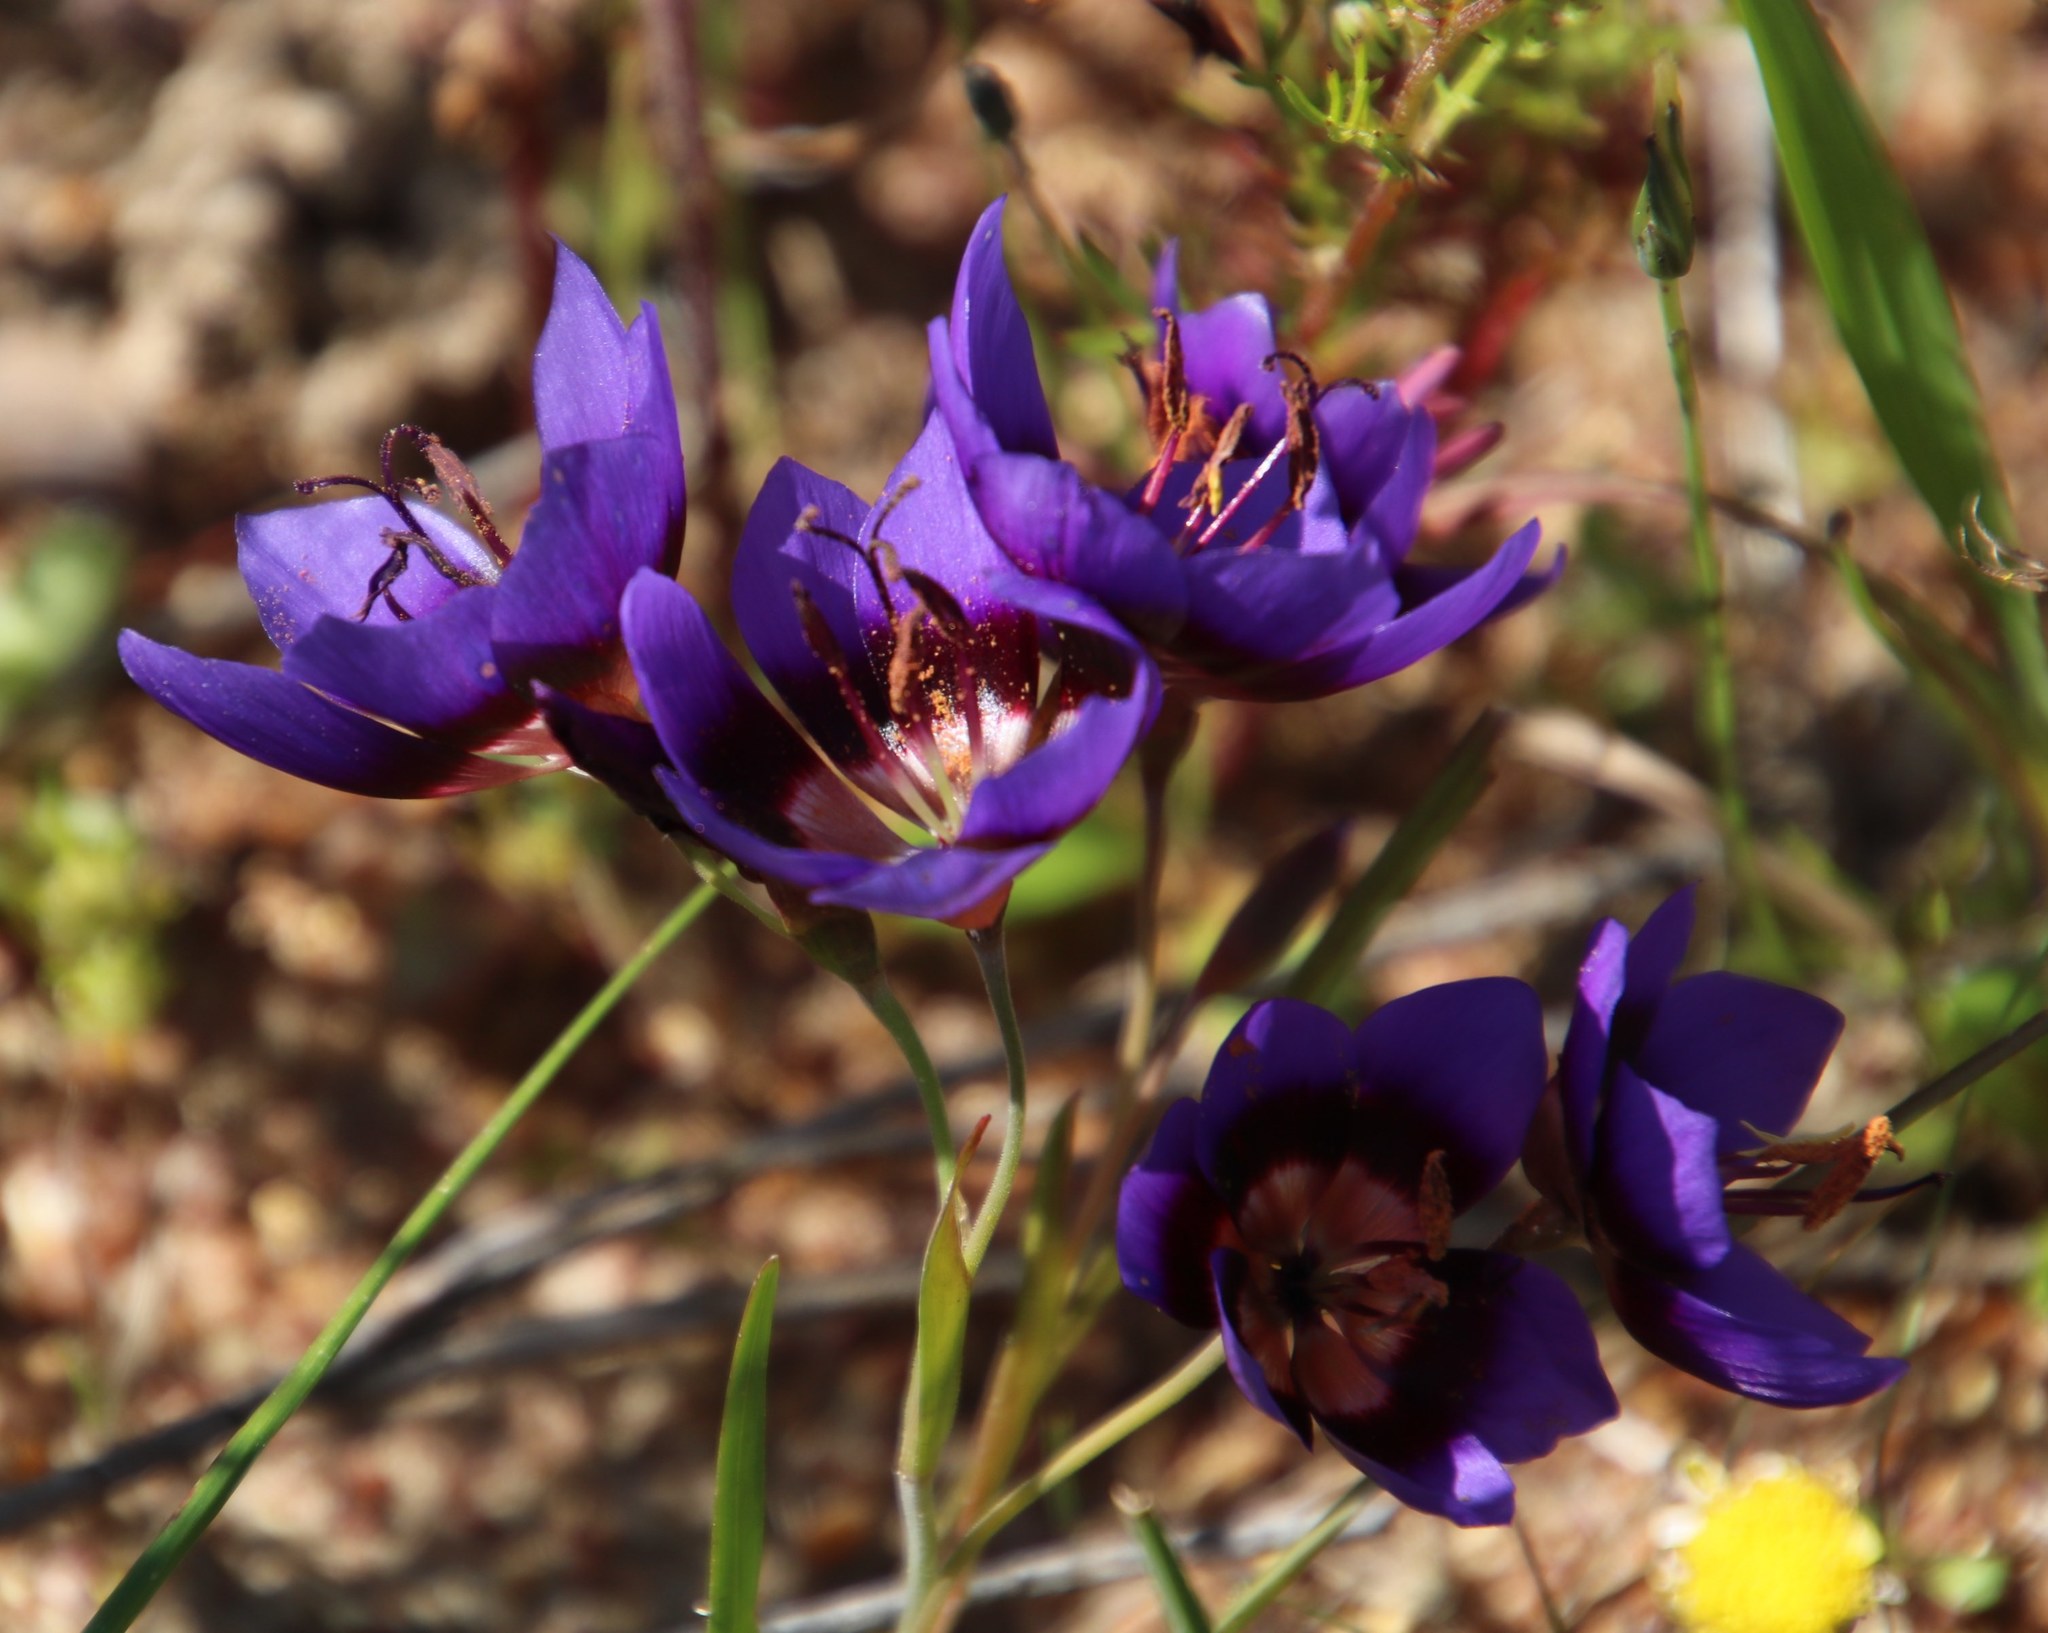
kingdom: Plantae
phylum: Tracheophyta
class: Liliopsida
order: Asparagales
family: Iridaceae
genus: Geissorhiza
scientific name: Geissorhiza monanthos
